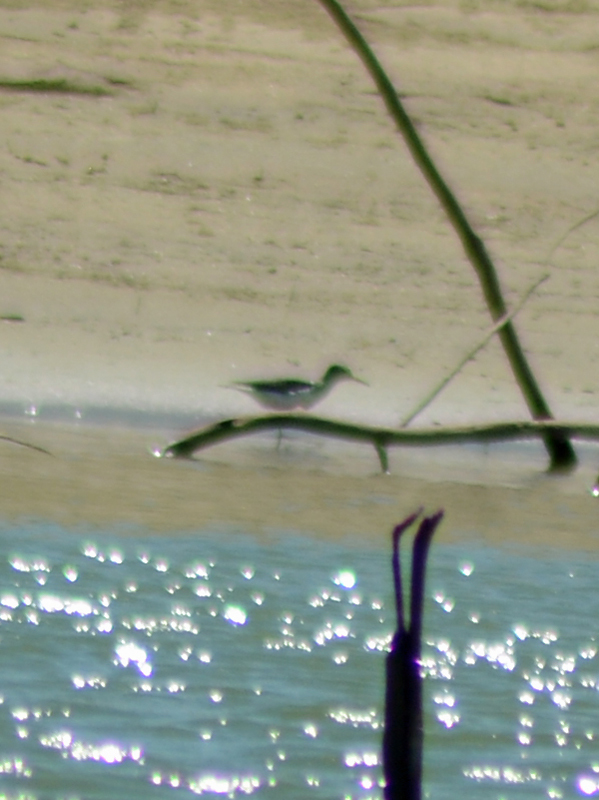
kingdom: Animalia
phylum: Chordata
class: Aves
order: Charadriiformes
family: Scolopacidae
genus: Actitis
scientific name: Actitis macularius
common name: Spotted sandpiper
